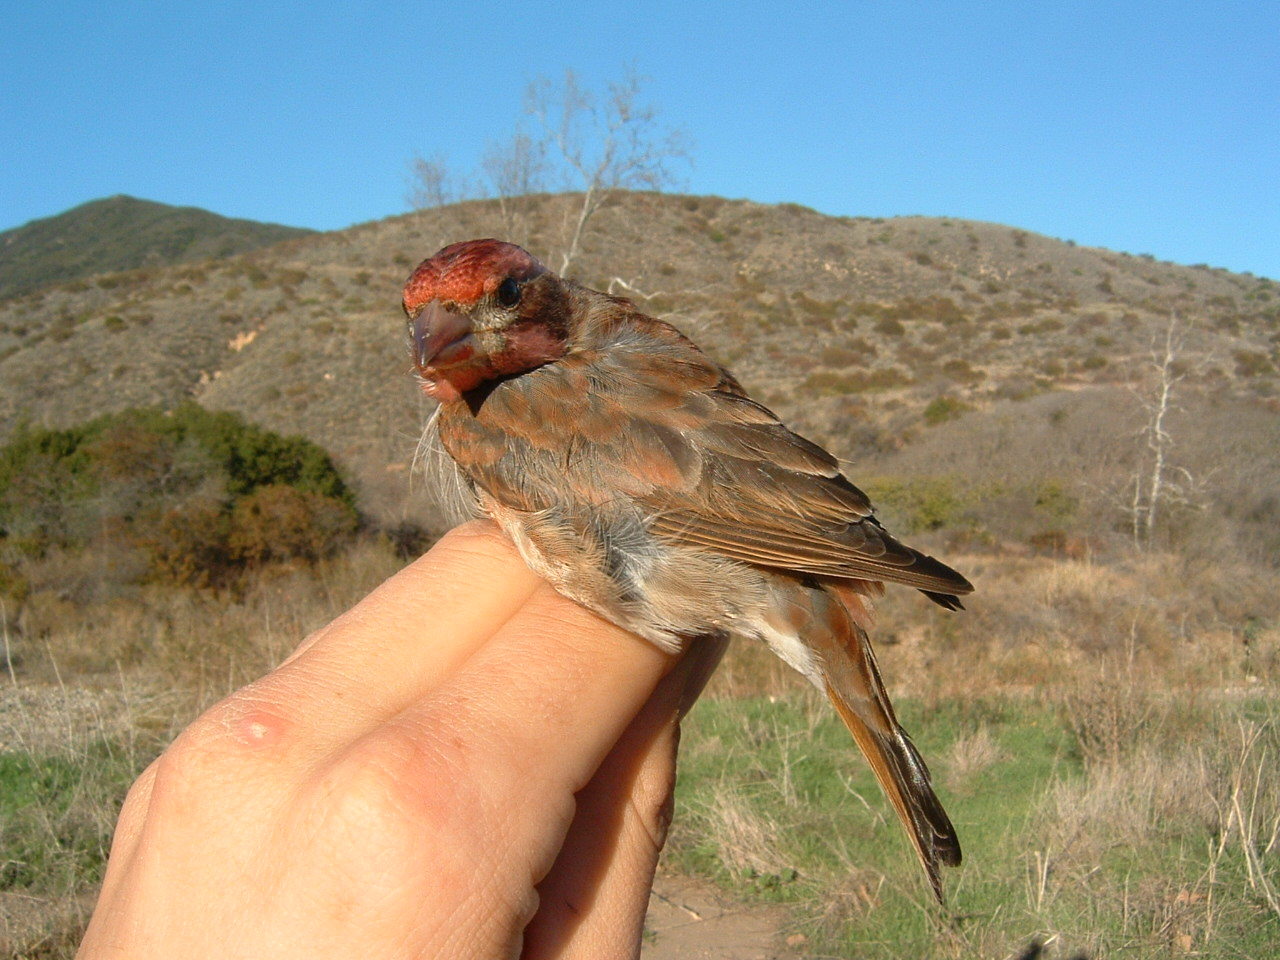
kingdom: Animalia
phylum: Chordata
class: Aves
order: Passeriformes
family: Fringillidae
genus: Haemorhous
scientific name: Haemorhous purpureus
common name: Purple finch
